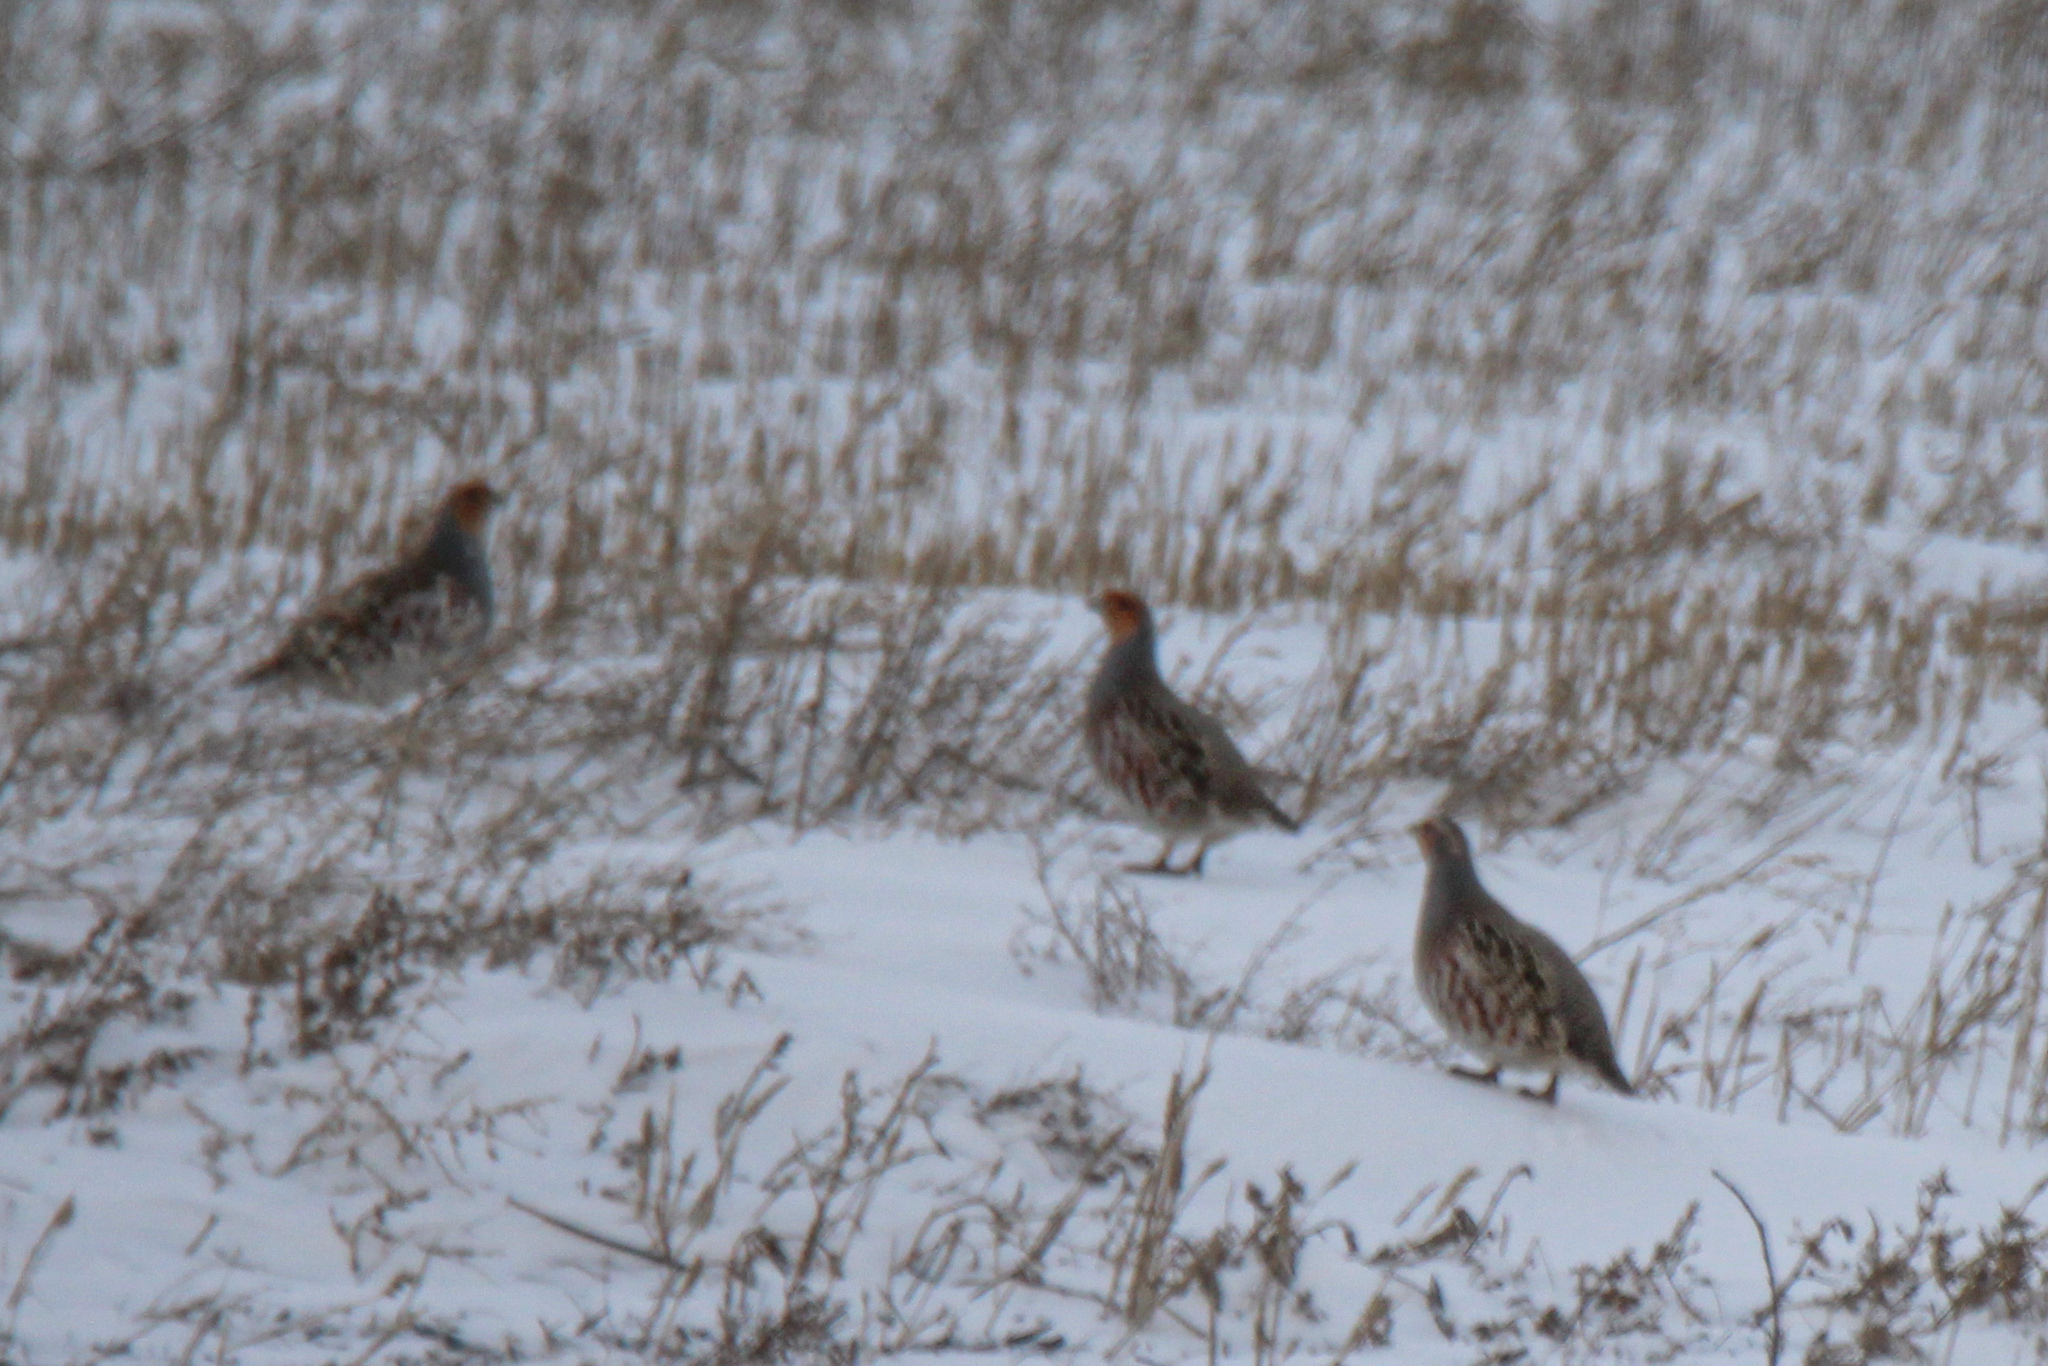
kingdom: Animalia
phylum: Chordata
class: Aves
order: Galliformes
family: Phasianidae
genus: Perdix
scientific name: Perdix perdix
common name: Grey partridge
